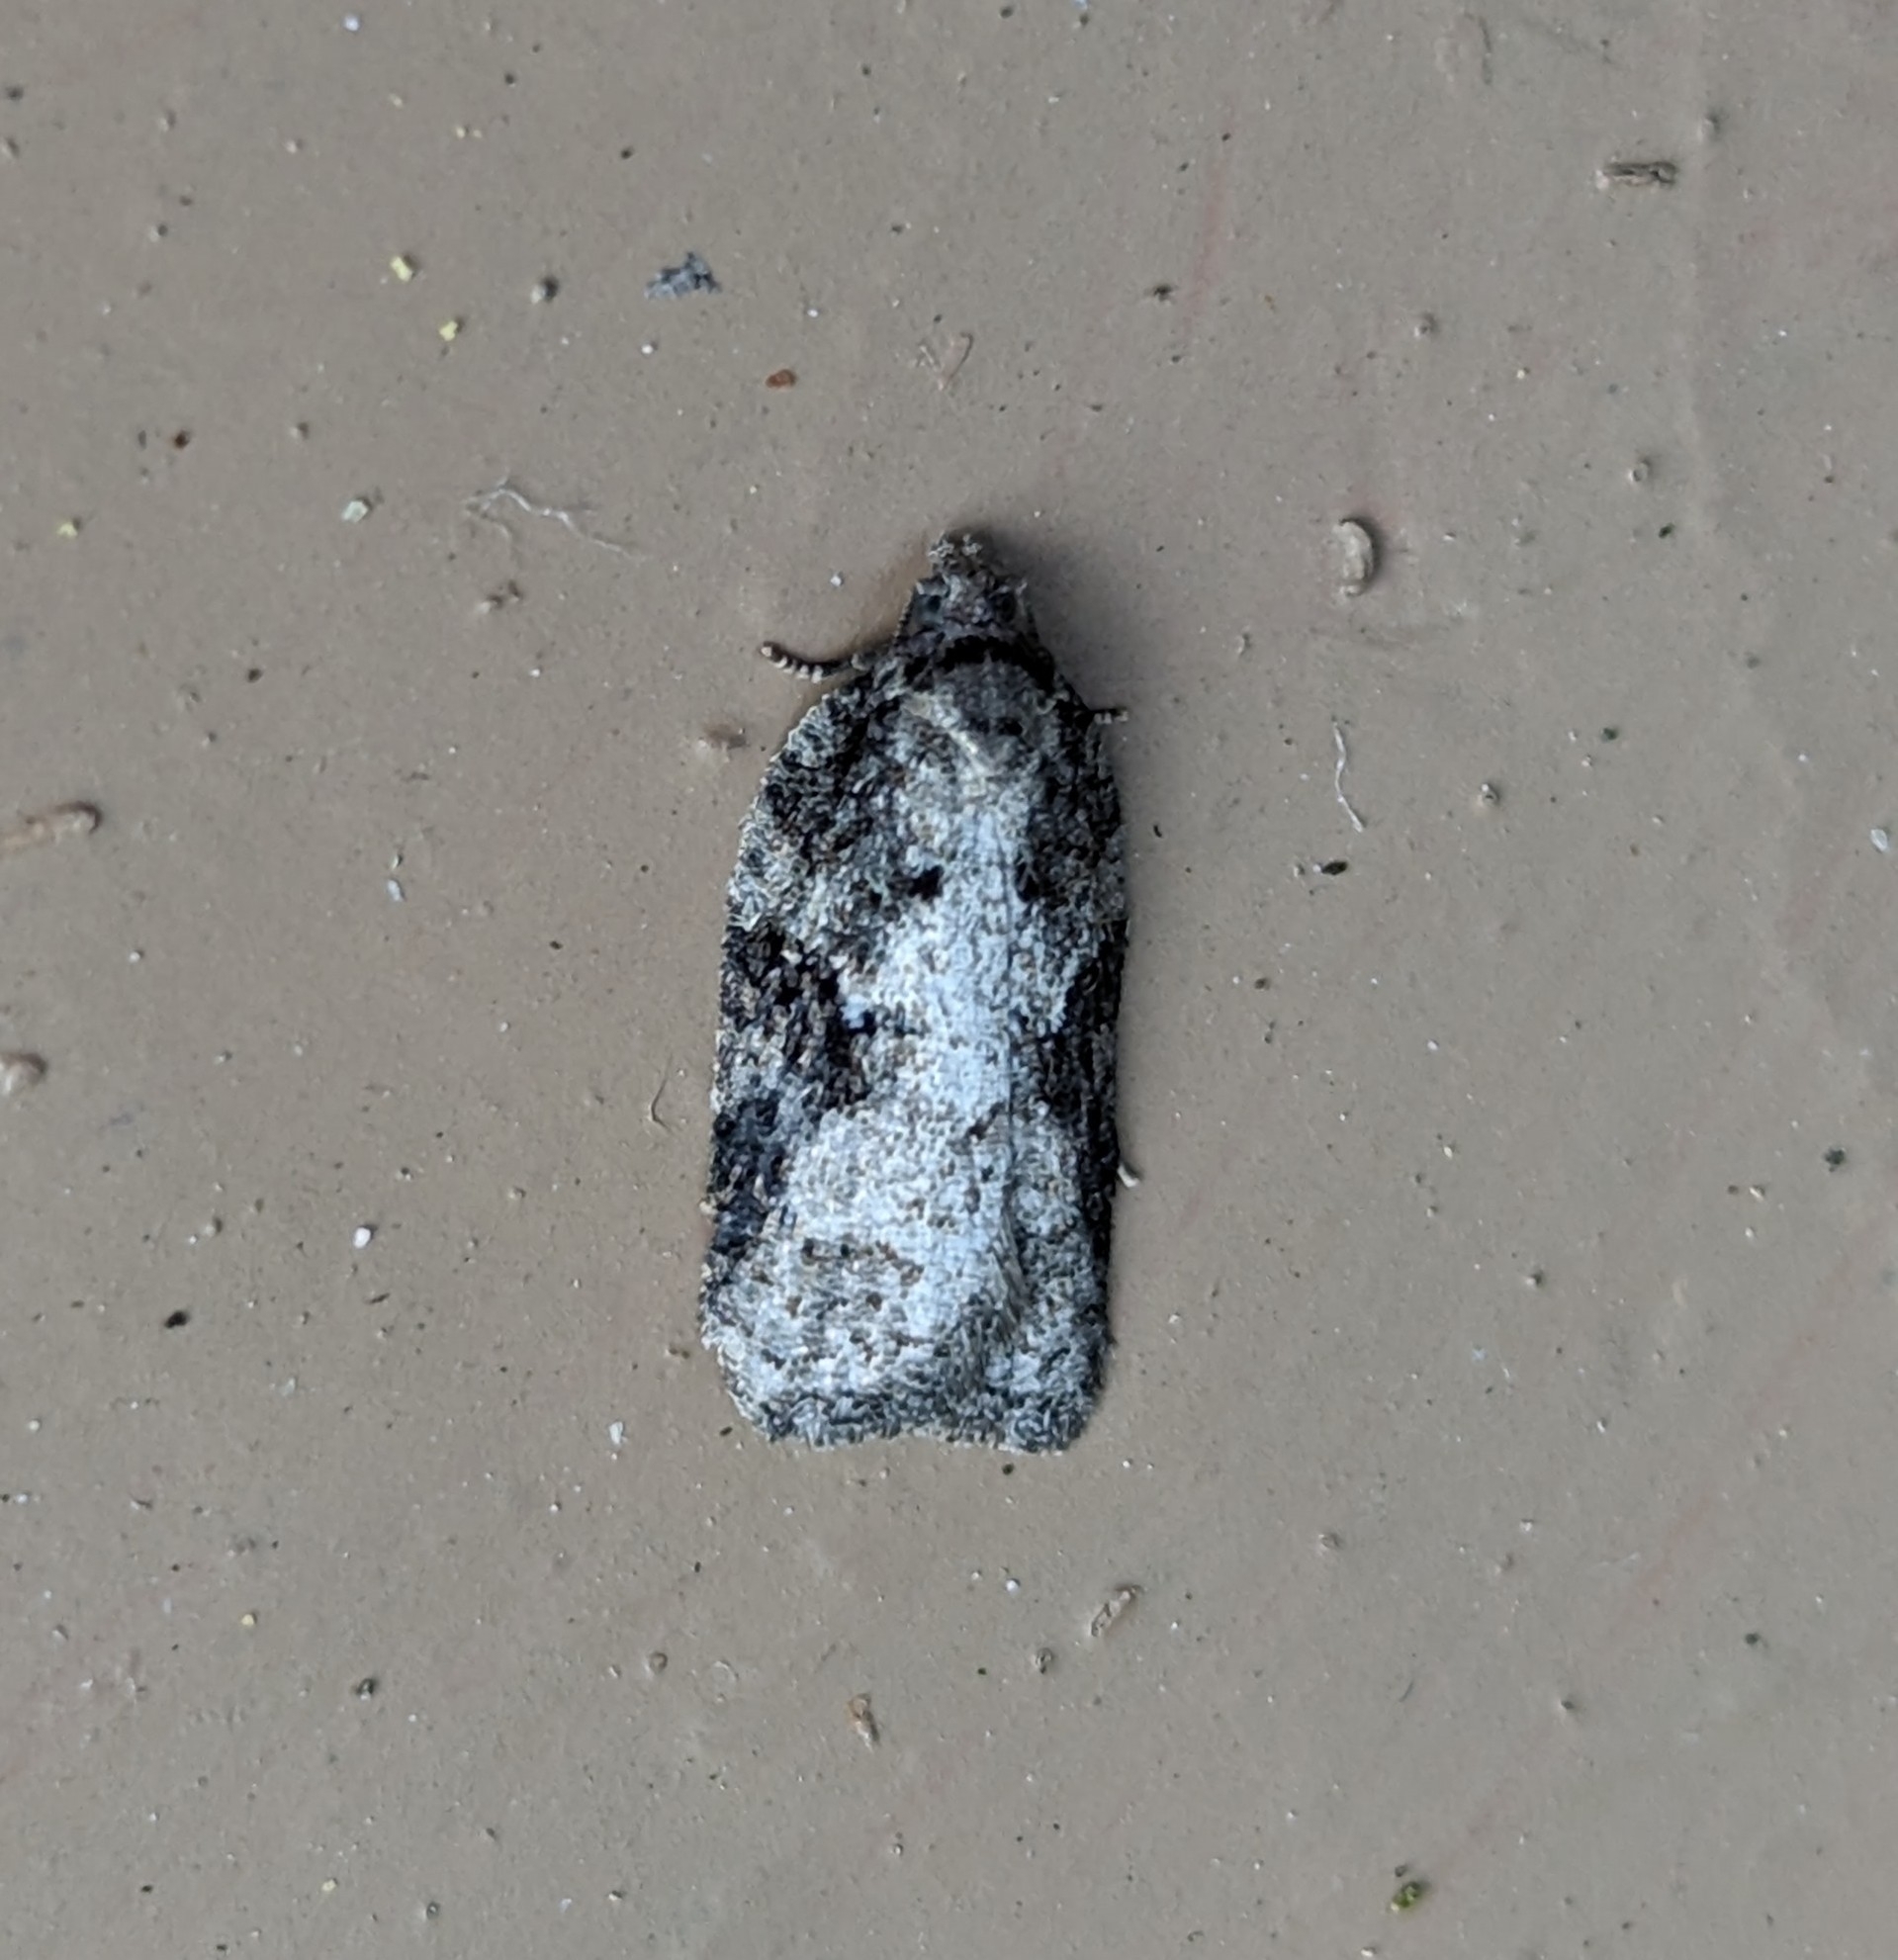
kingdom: Animalia
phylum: Arthropoda
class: Insecta
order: Lepidoptera
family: Tortricidae
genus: Acleris
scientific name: Acleris
